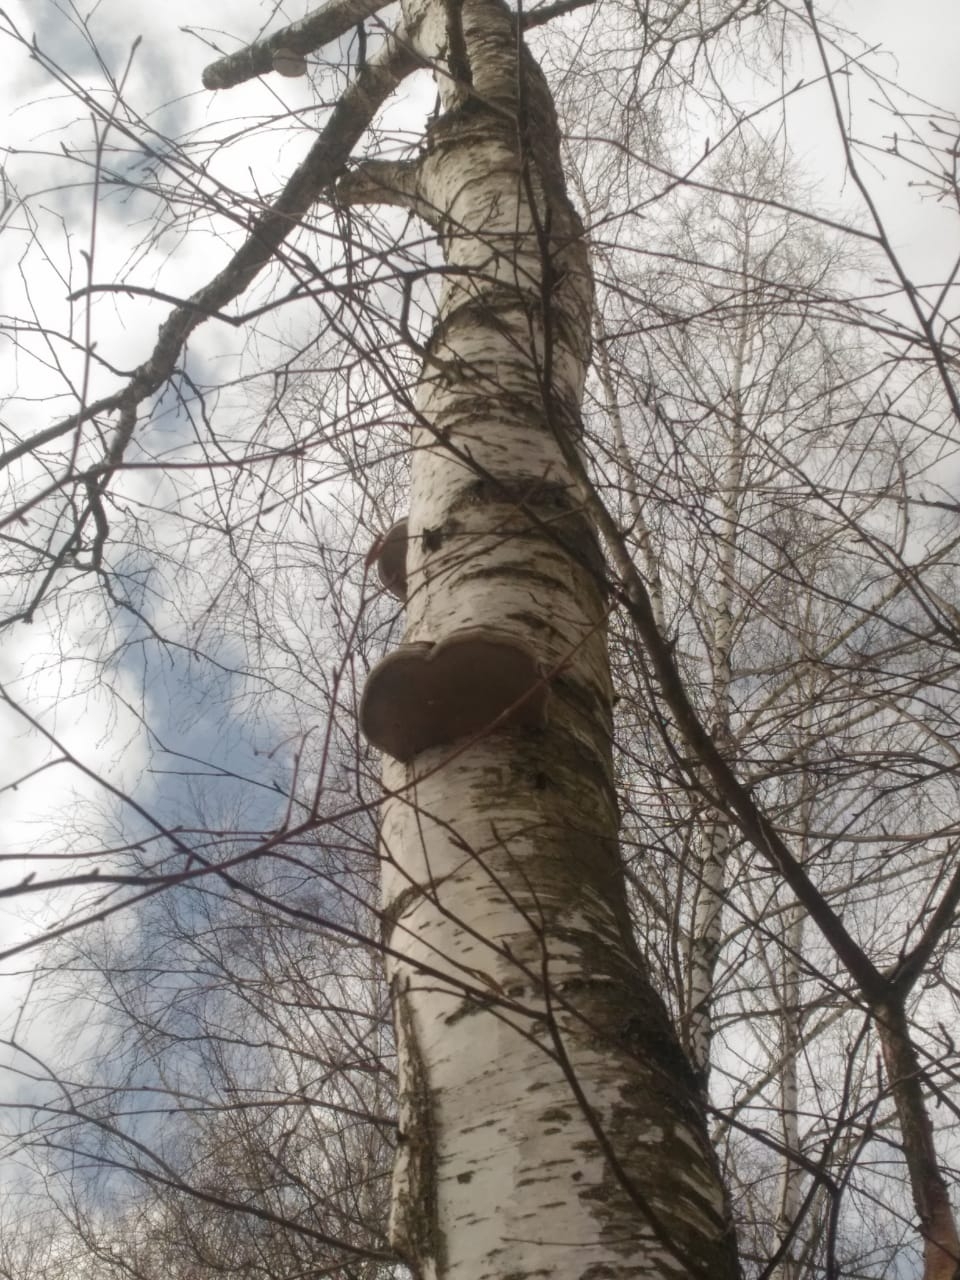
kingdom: Fungi
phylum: Basidiomycota
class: Agaricomycetes
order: Polyporales
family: Polyporaceae
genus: Fomes
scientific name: Fomes fomentarius
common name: Hoof fungus
